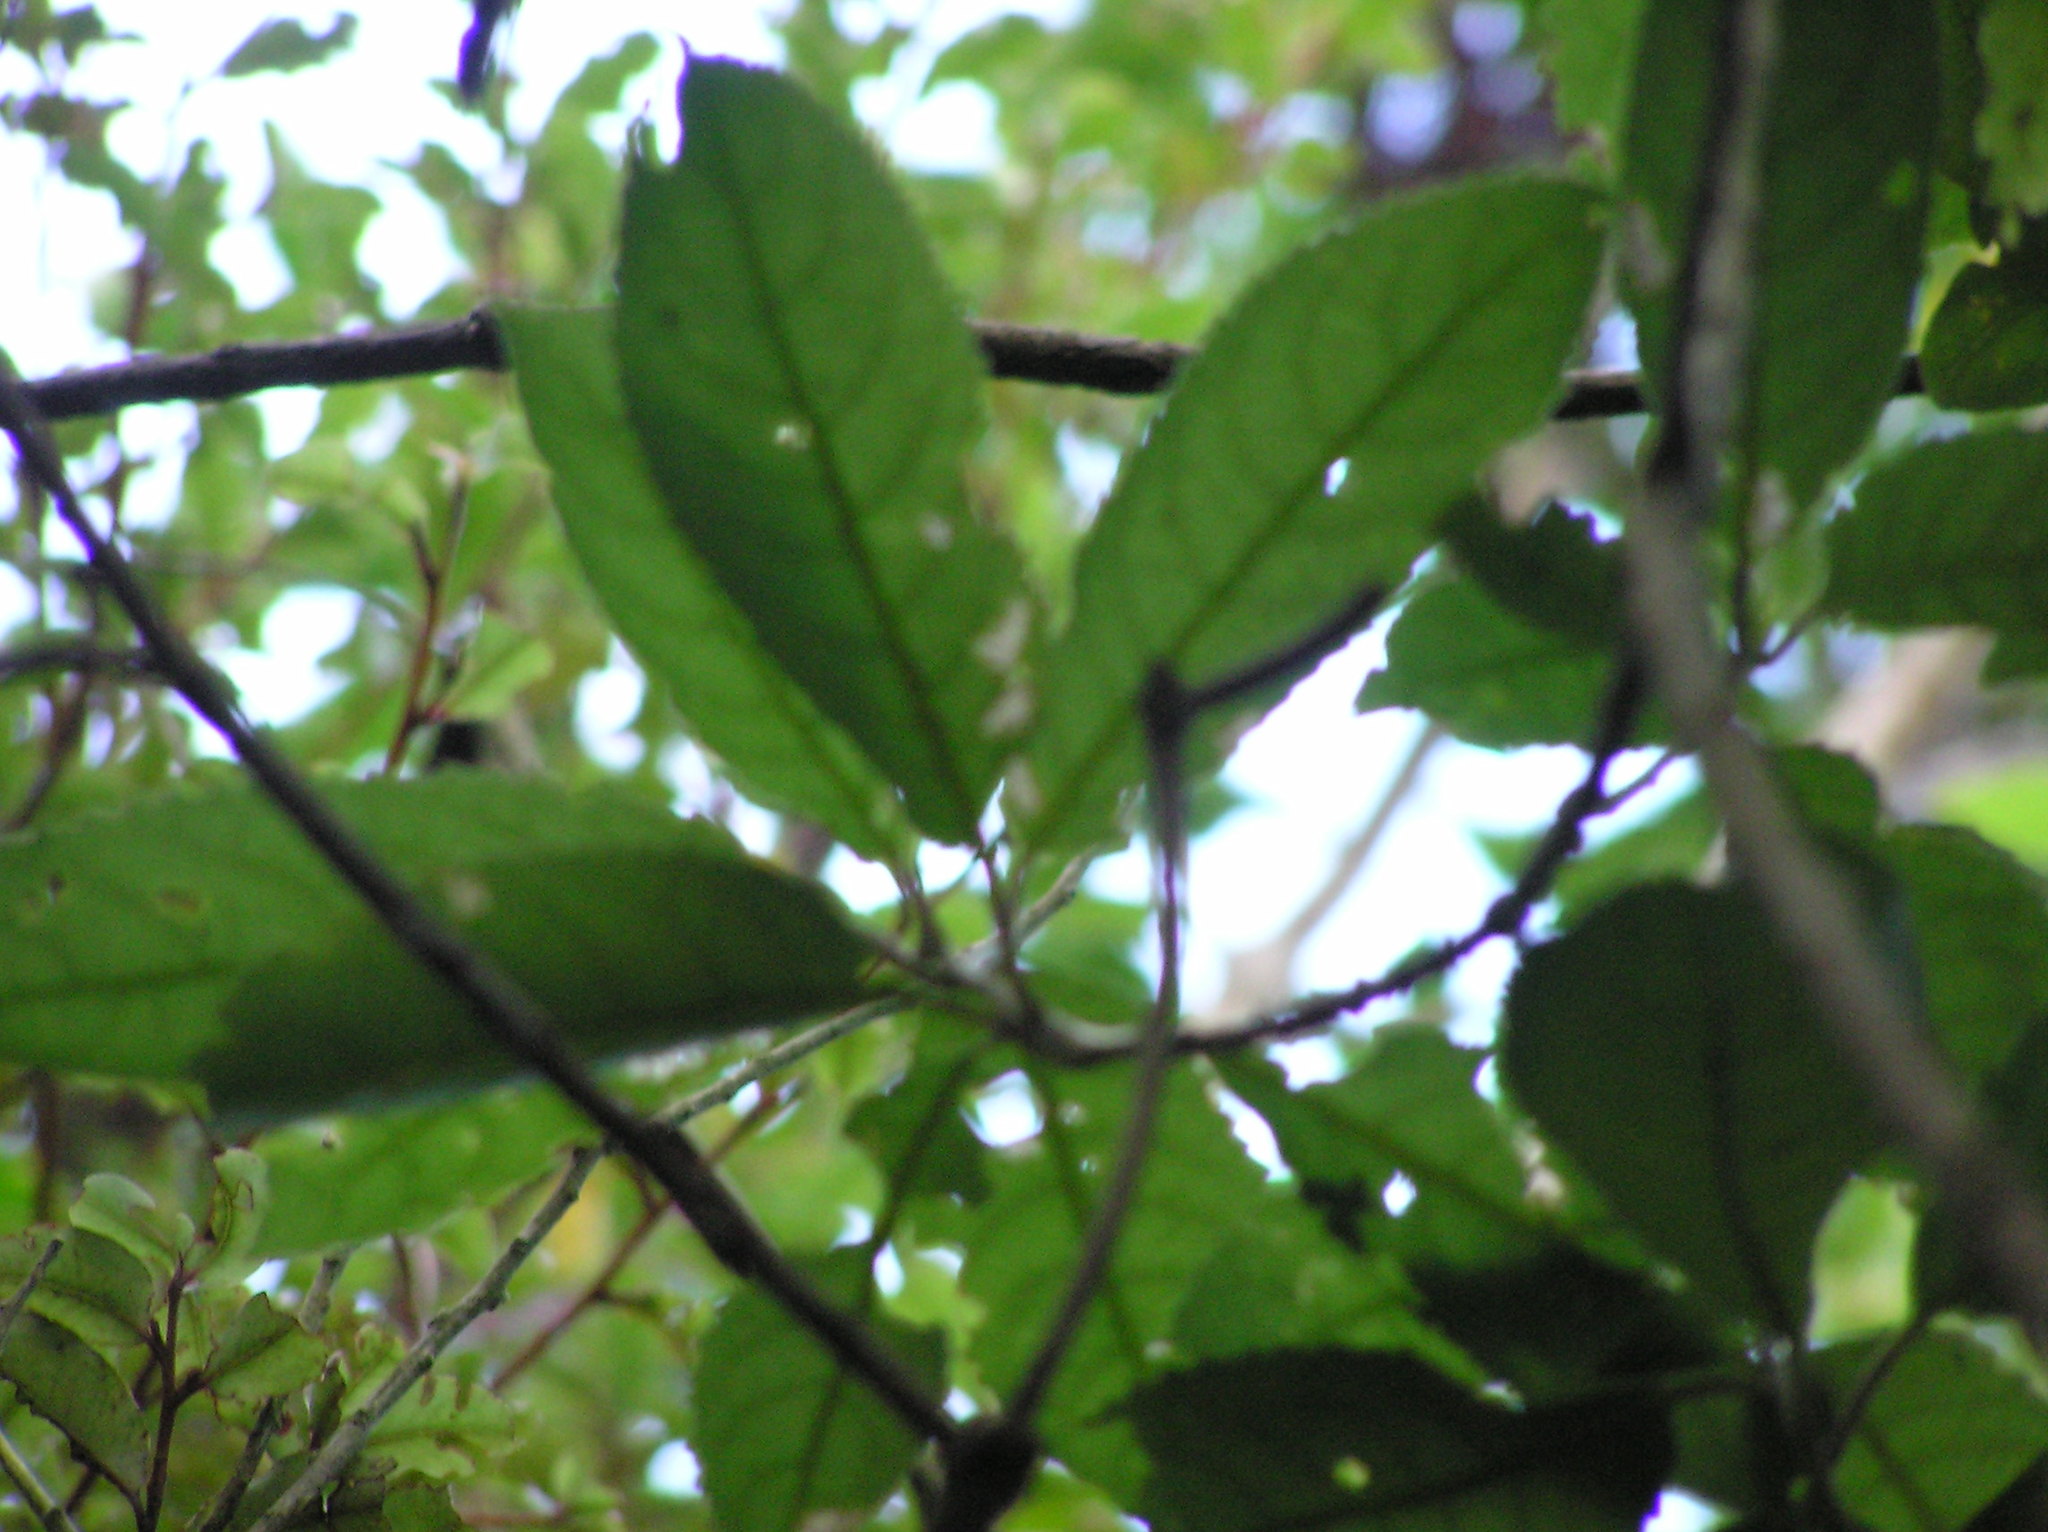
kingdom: Plantae
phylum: Tracheophyta
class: Magnoliopsida
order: Malpighiales
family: Violaceae
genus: Melicytus
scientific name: Melicytus ramiflorus
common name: Mahoe
